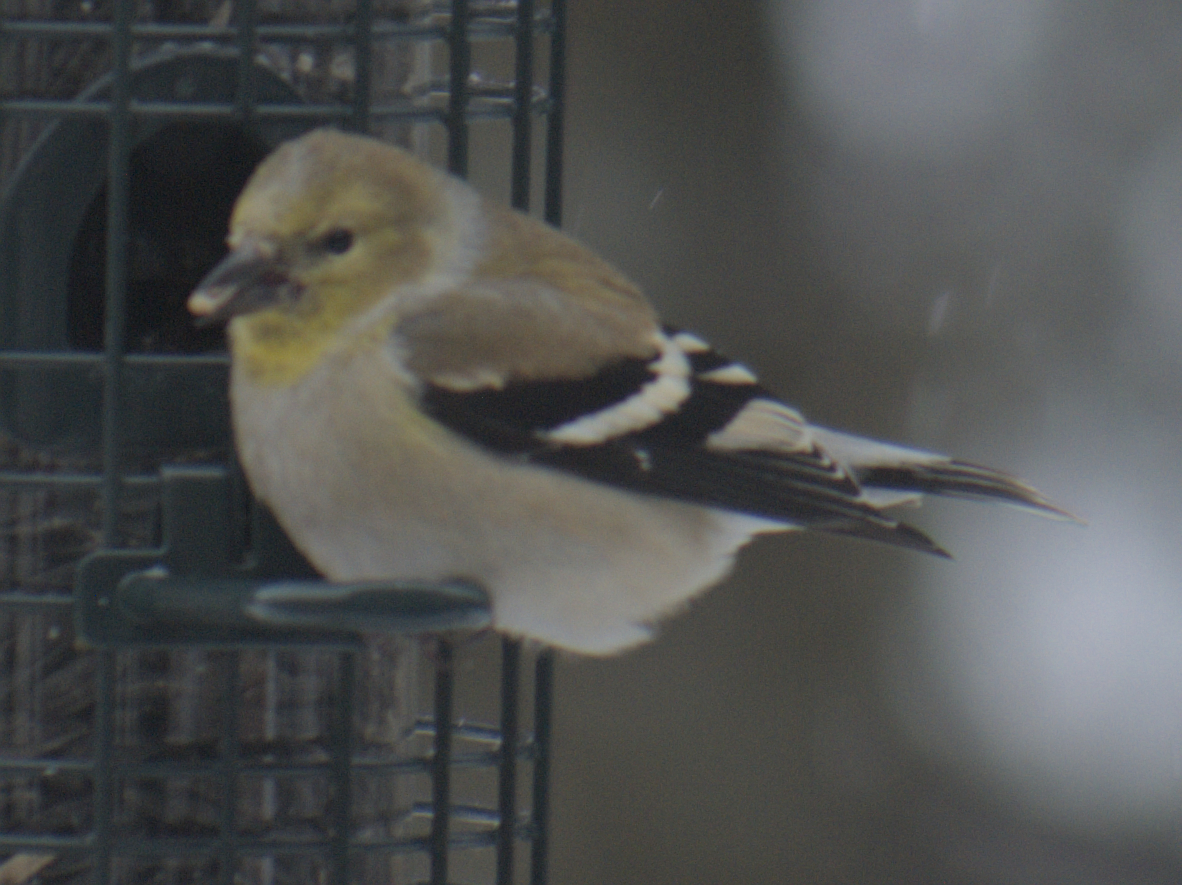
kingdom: Animalia
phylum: Chordata
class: Aves
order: Passeriformes
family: Fringillidae
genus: Spinus
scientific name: Spinus tristis
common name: American goldfinch
